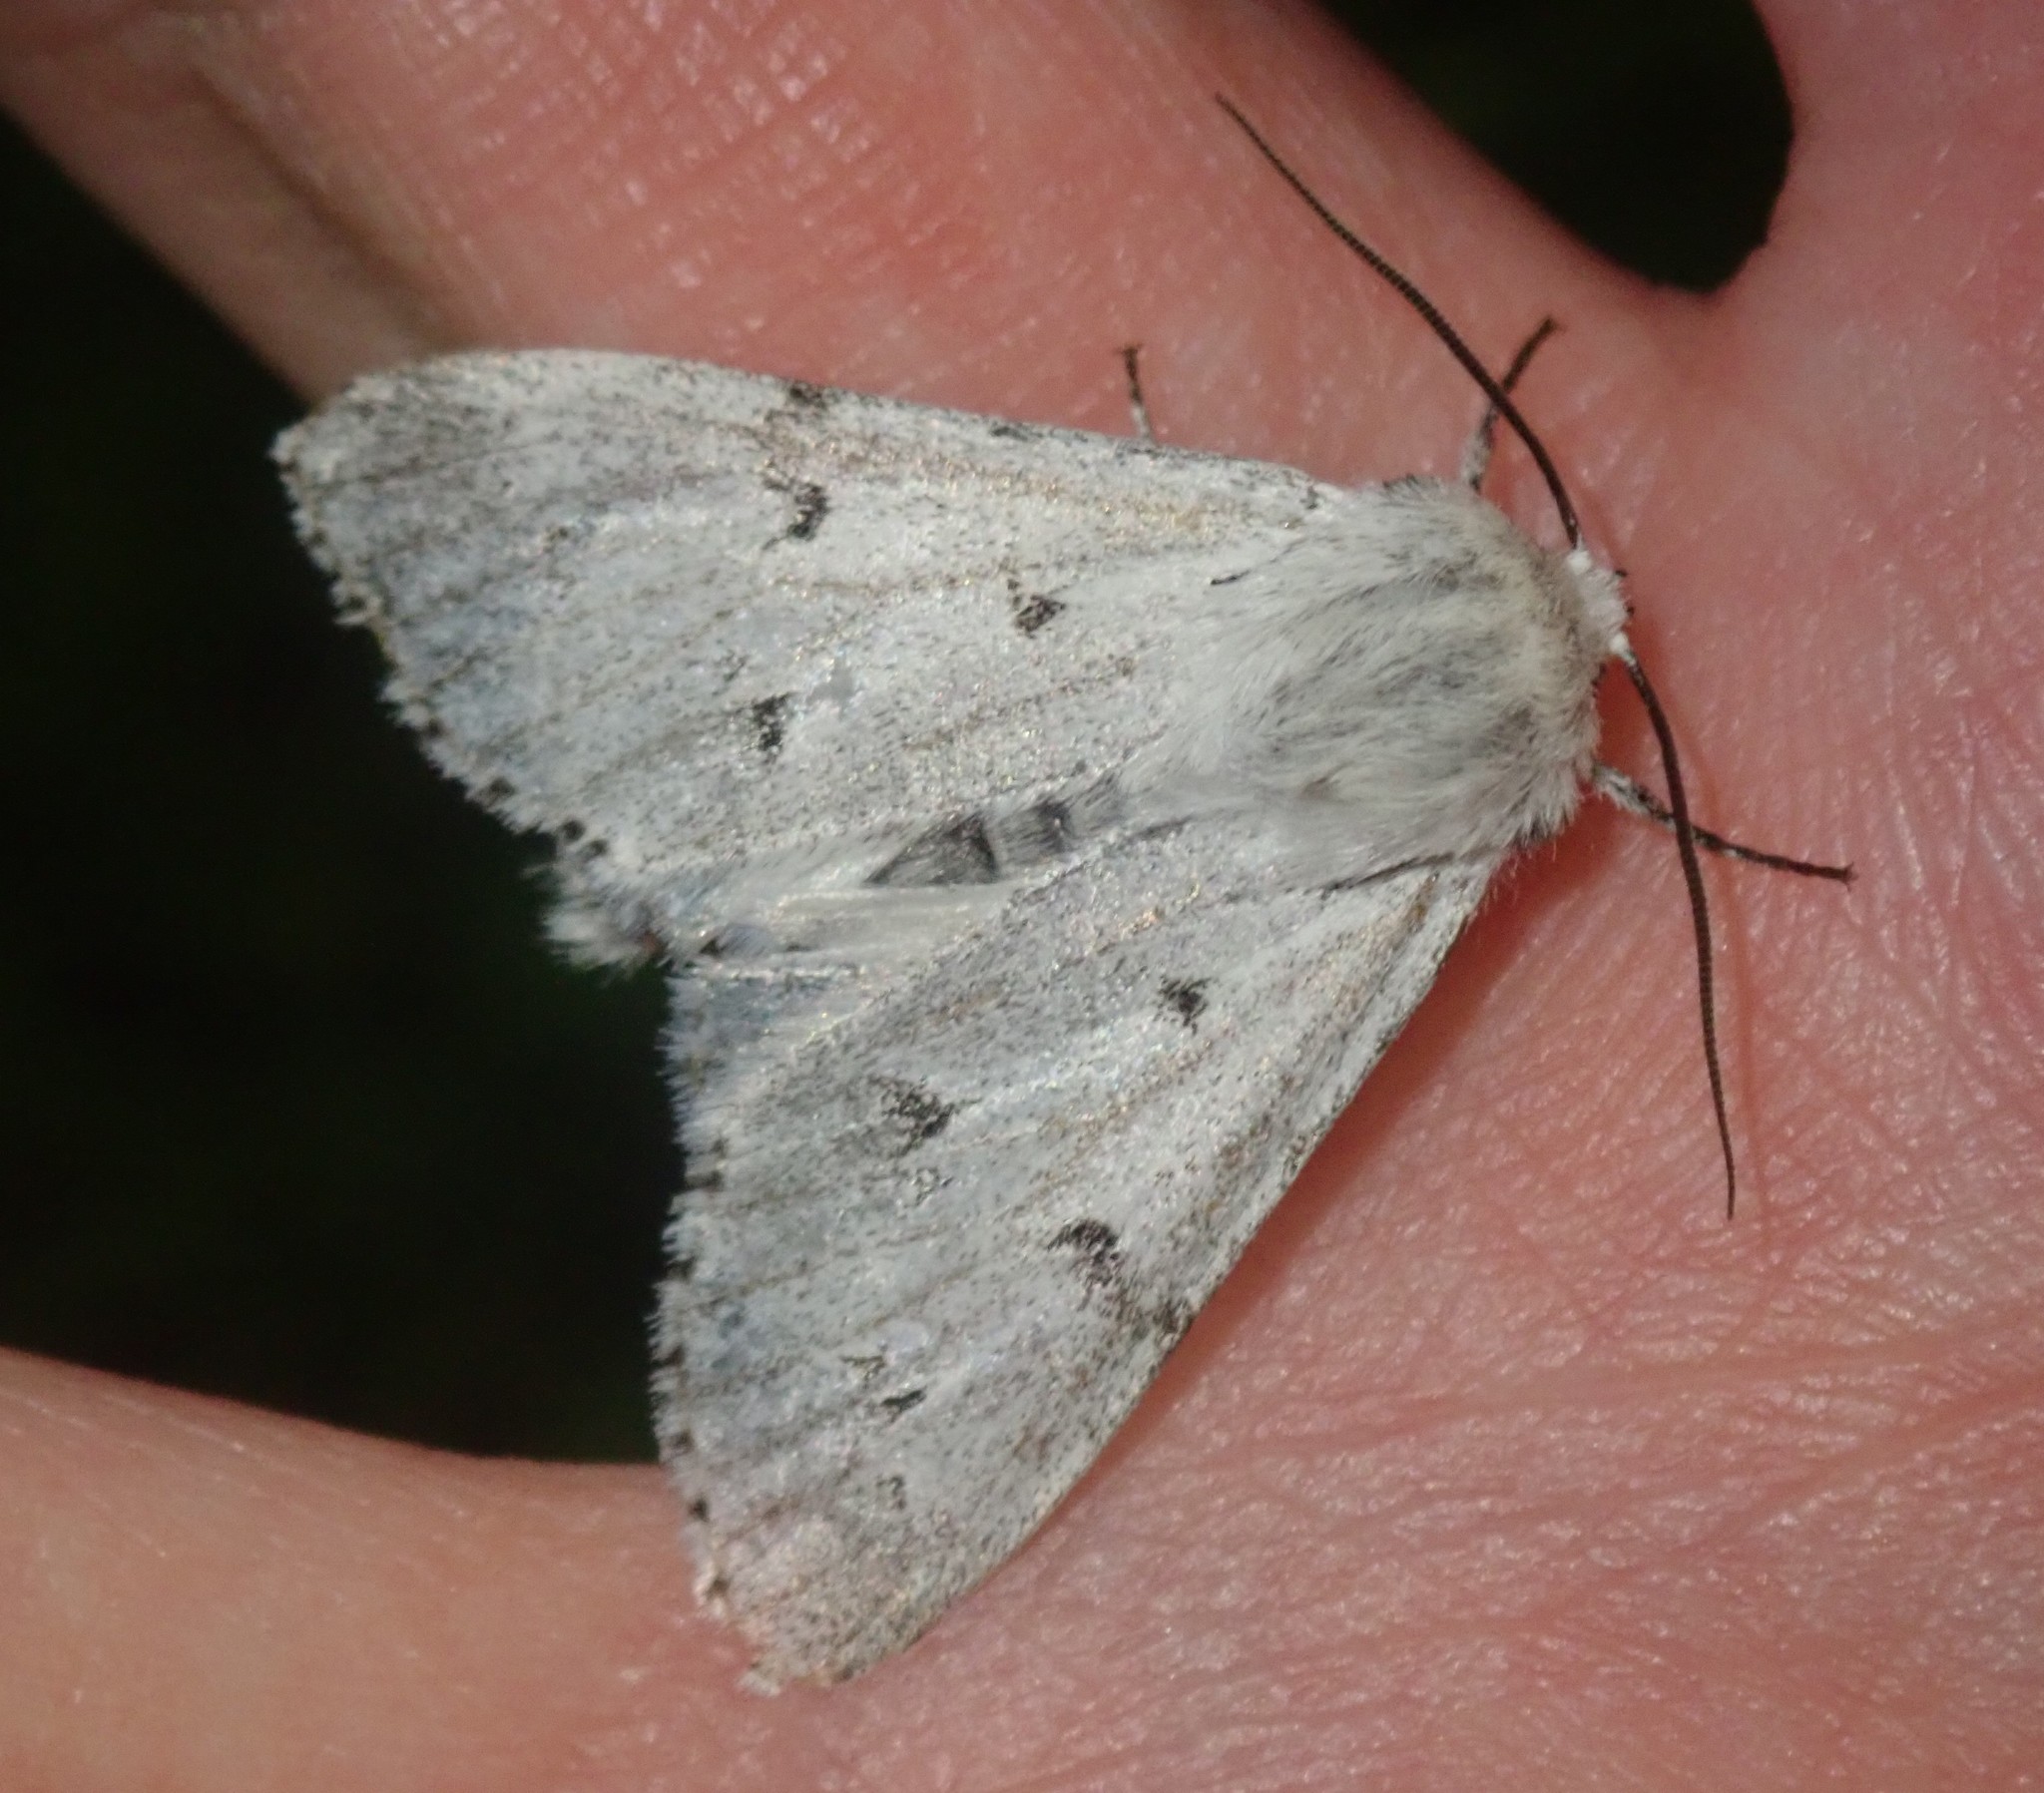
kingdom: Animalia
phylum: Arthropoda
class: Insecta
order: Lepidoptera
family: Noctuidae
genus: Acronicta
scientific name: Acronicta leporina
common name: Miller
